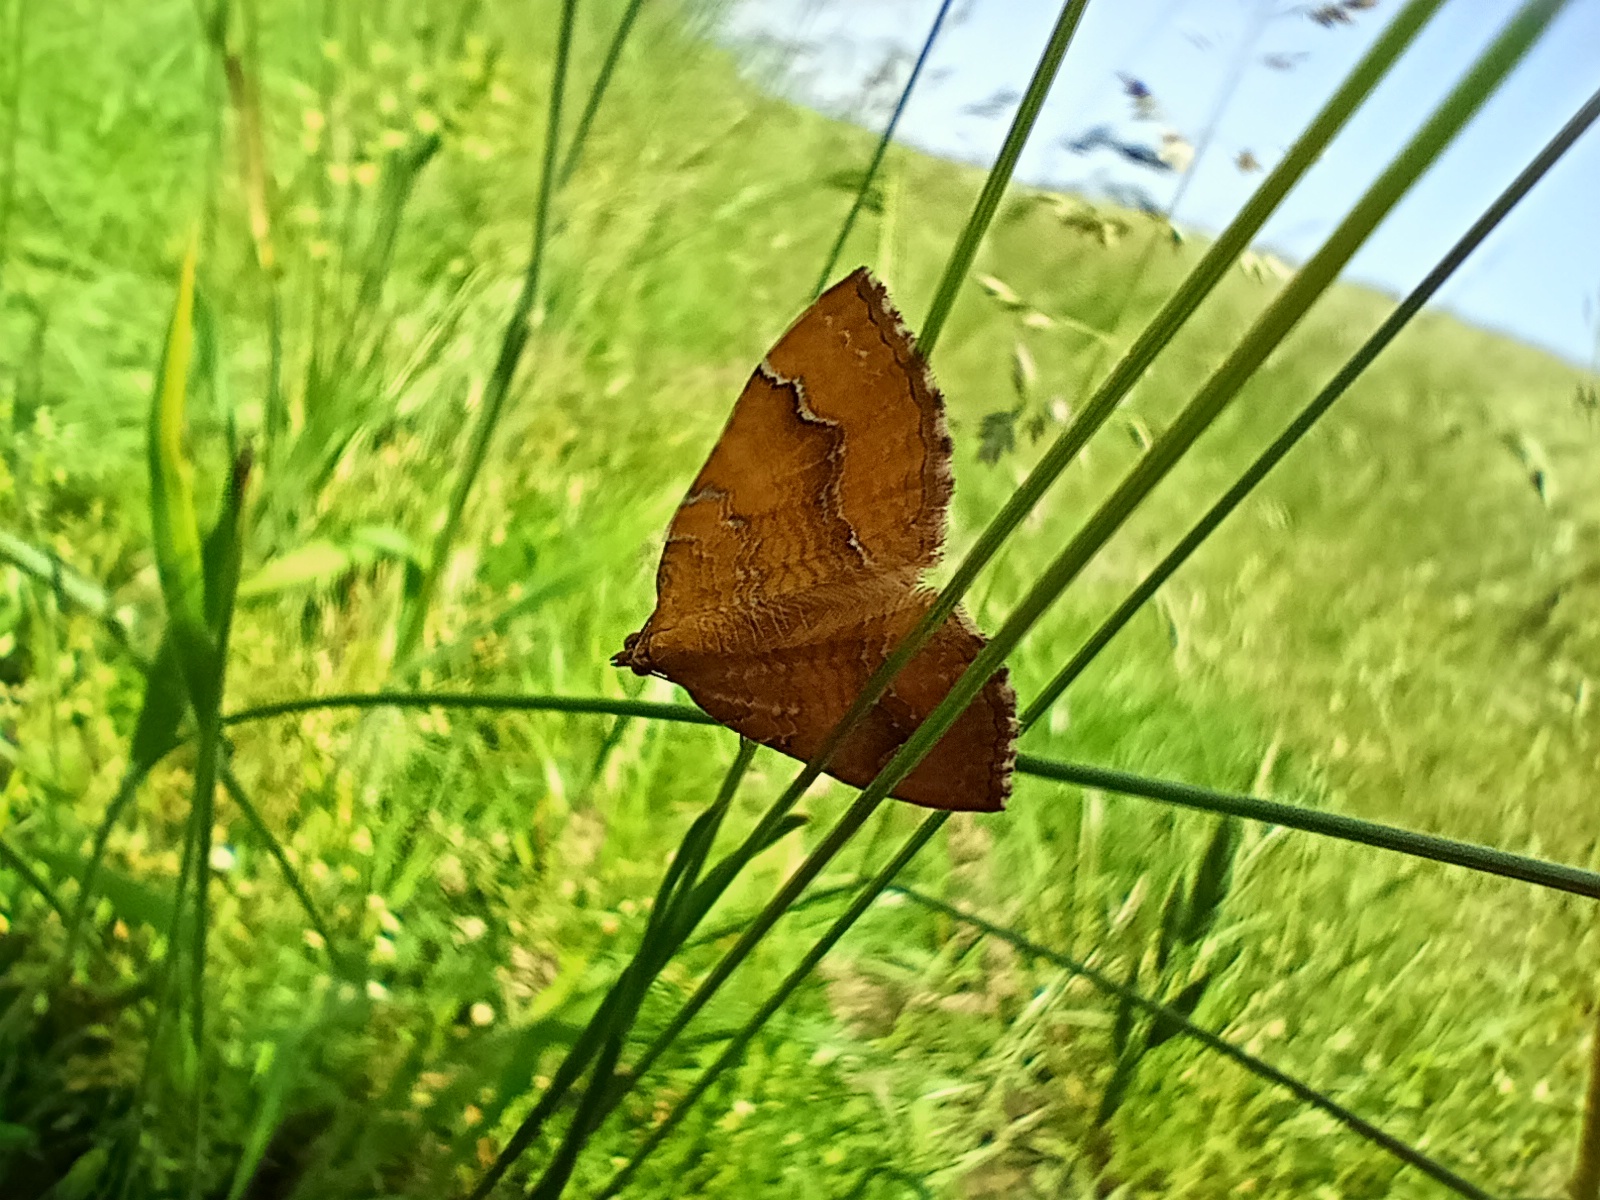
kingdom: Animalia
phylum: Arthropoda
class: Insecta
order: Lepidoptera
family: Geometridae
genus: Camptogramma
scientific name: Camptogramma bilineata
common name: Yellow shell
